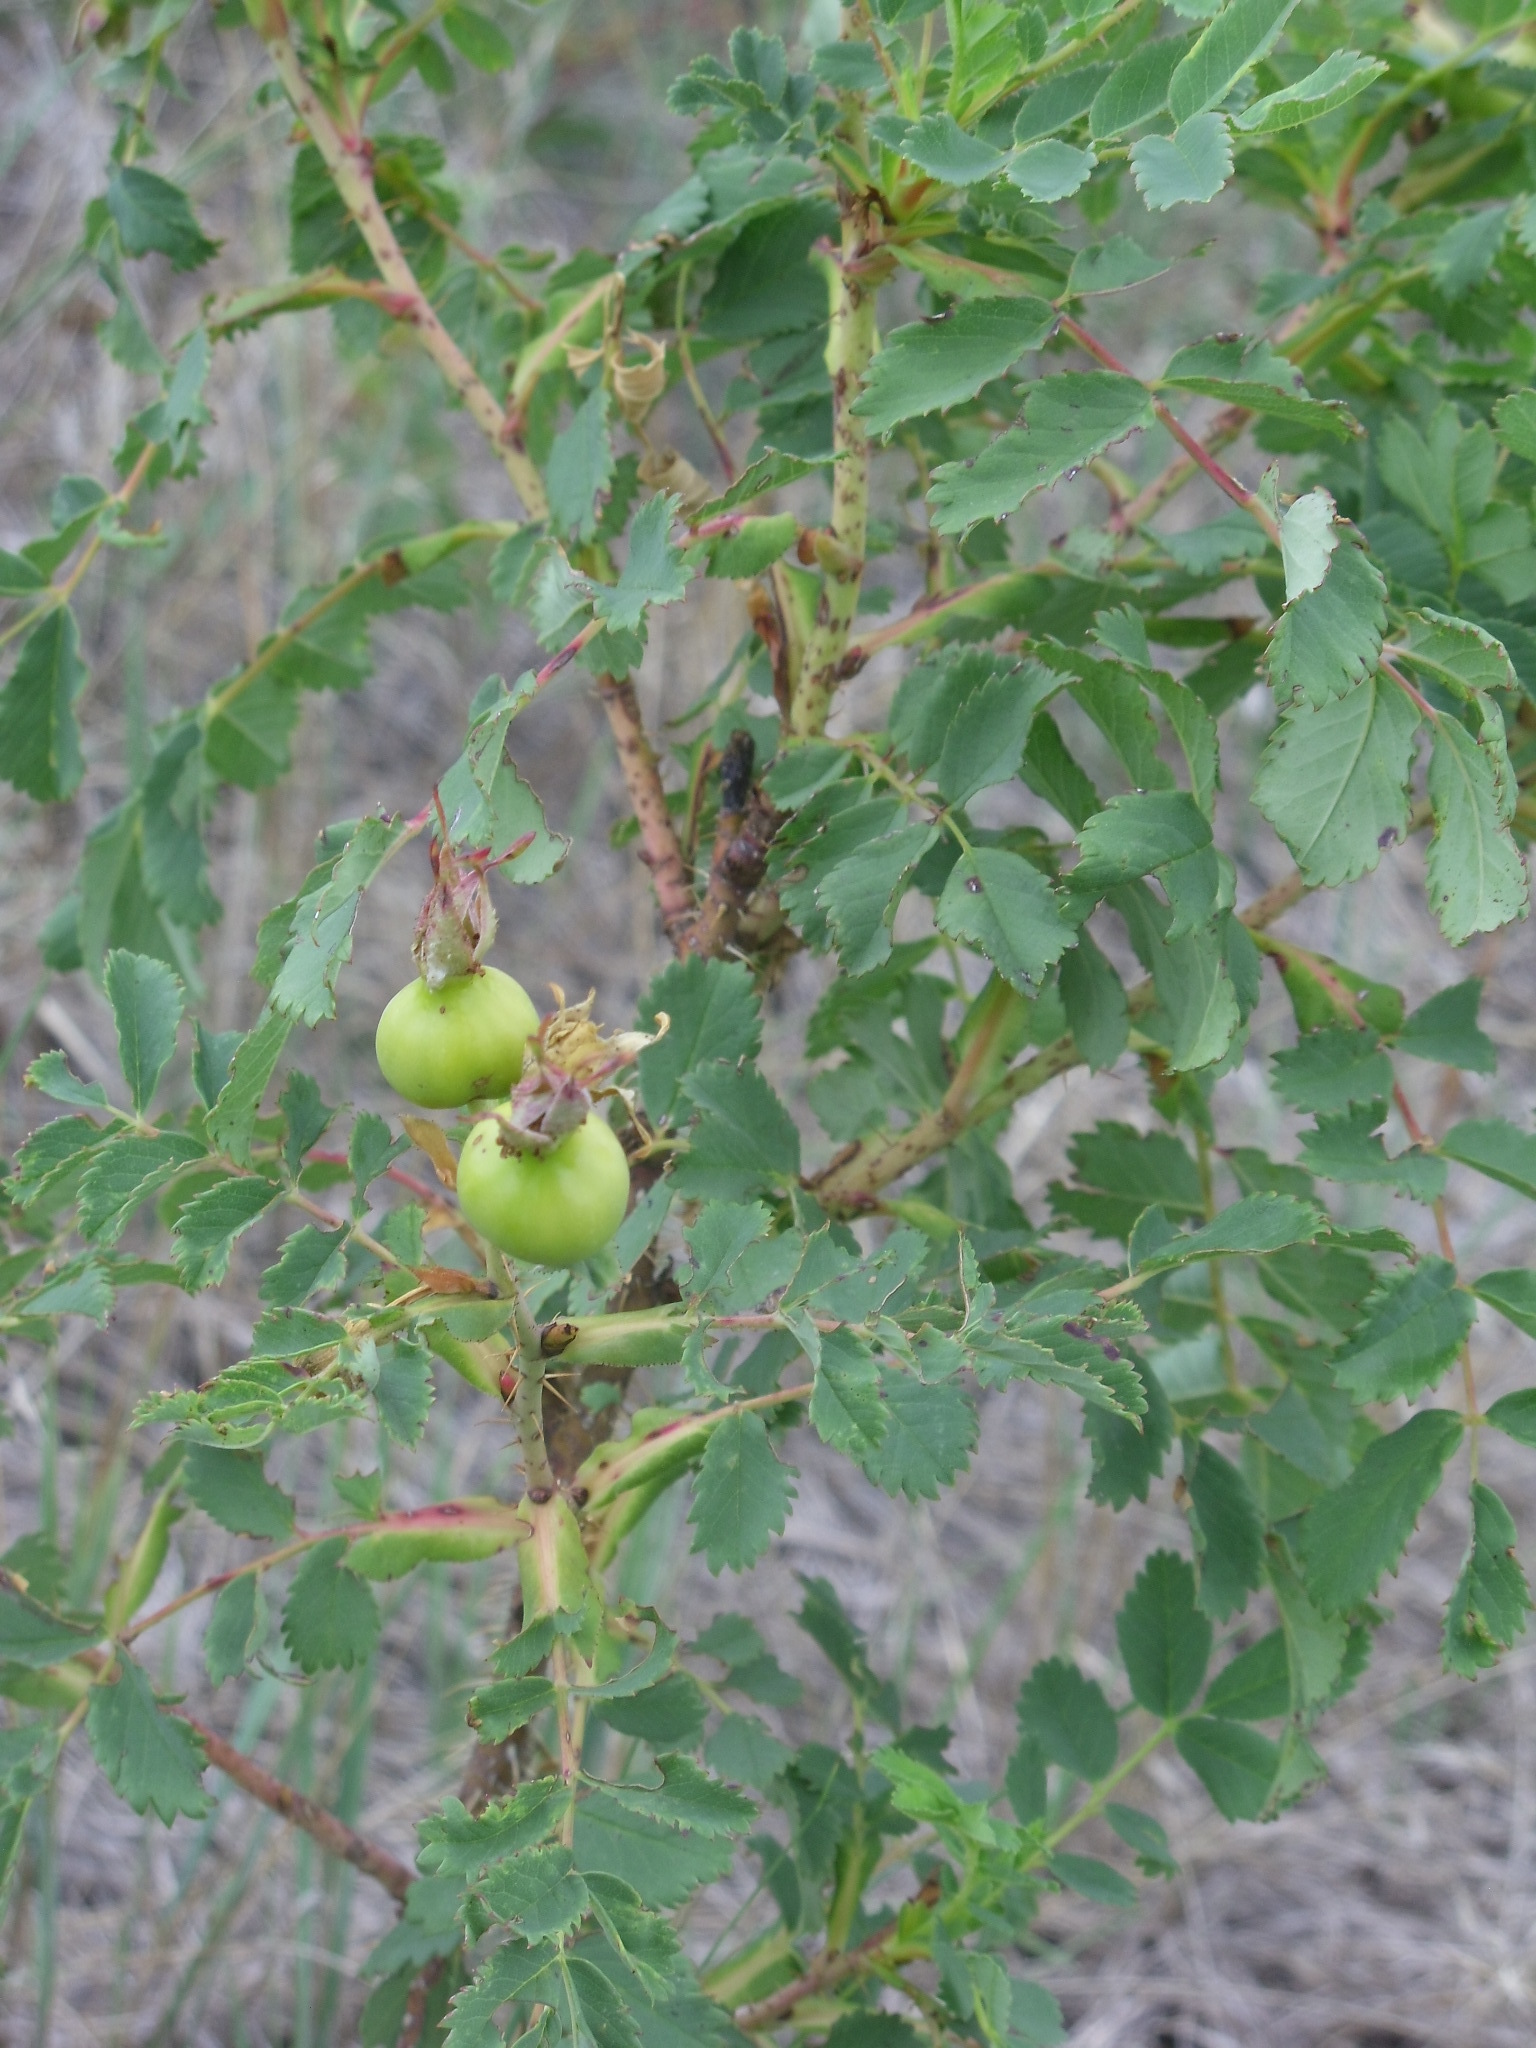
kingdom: Plantae
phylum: Tracheophyta
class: Magnoliopsida
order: Rosales
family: Rosaceae
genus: Rosa
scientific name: Rosa woodsii
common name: Woods's rose
